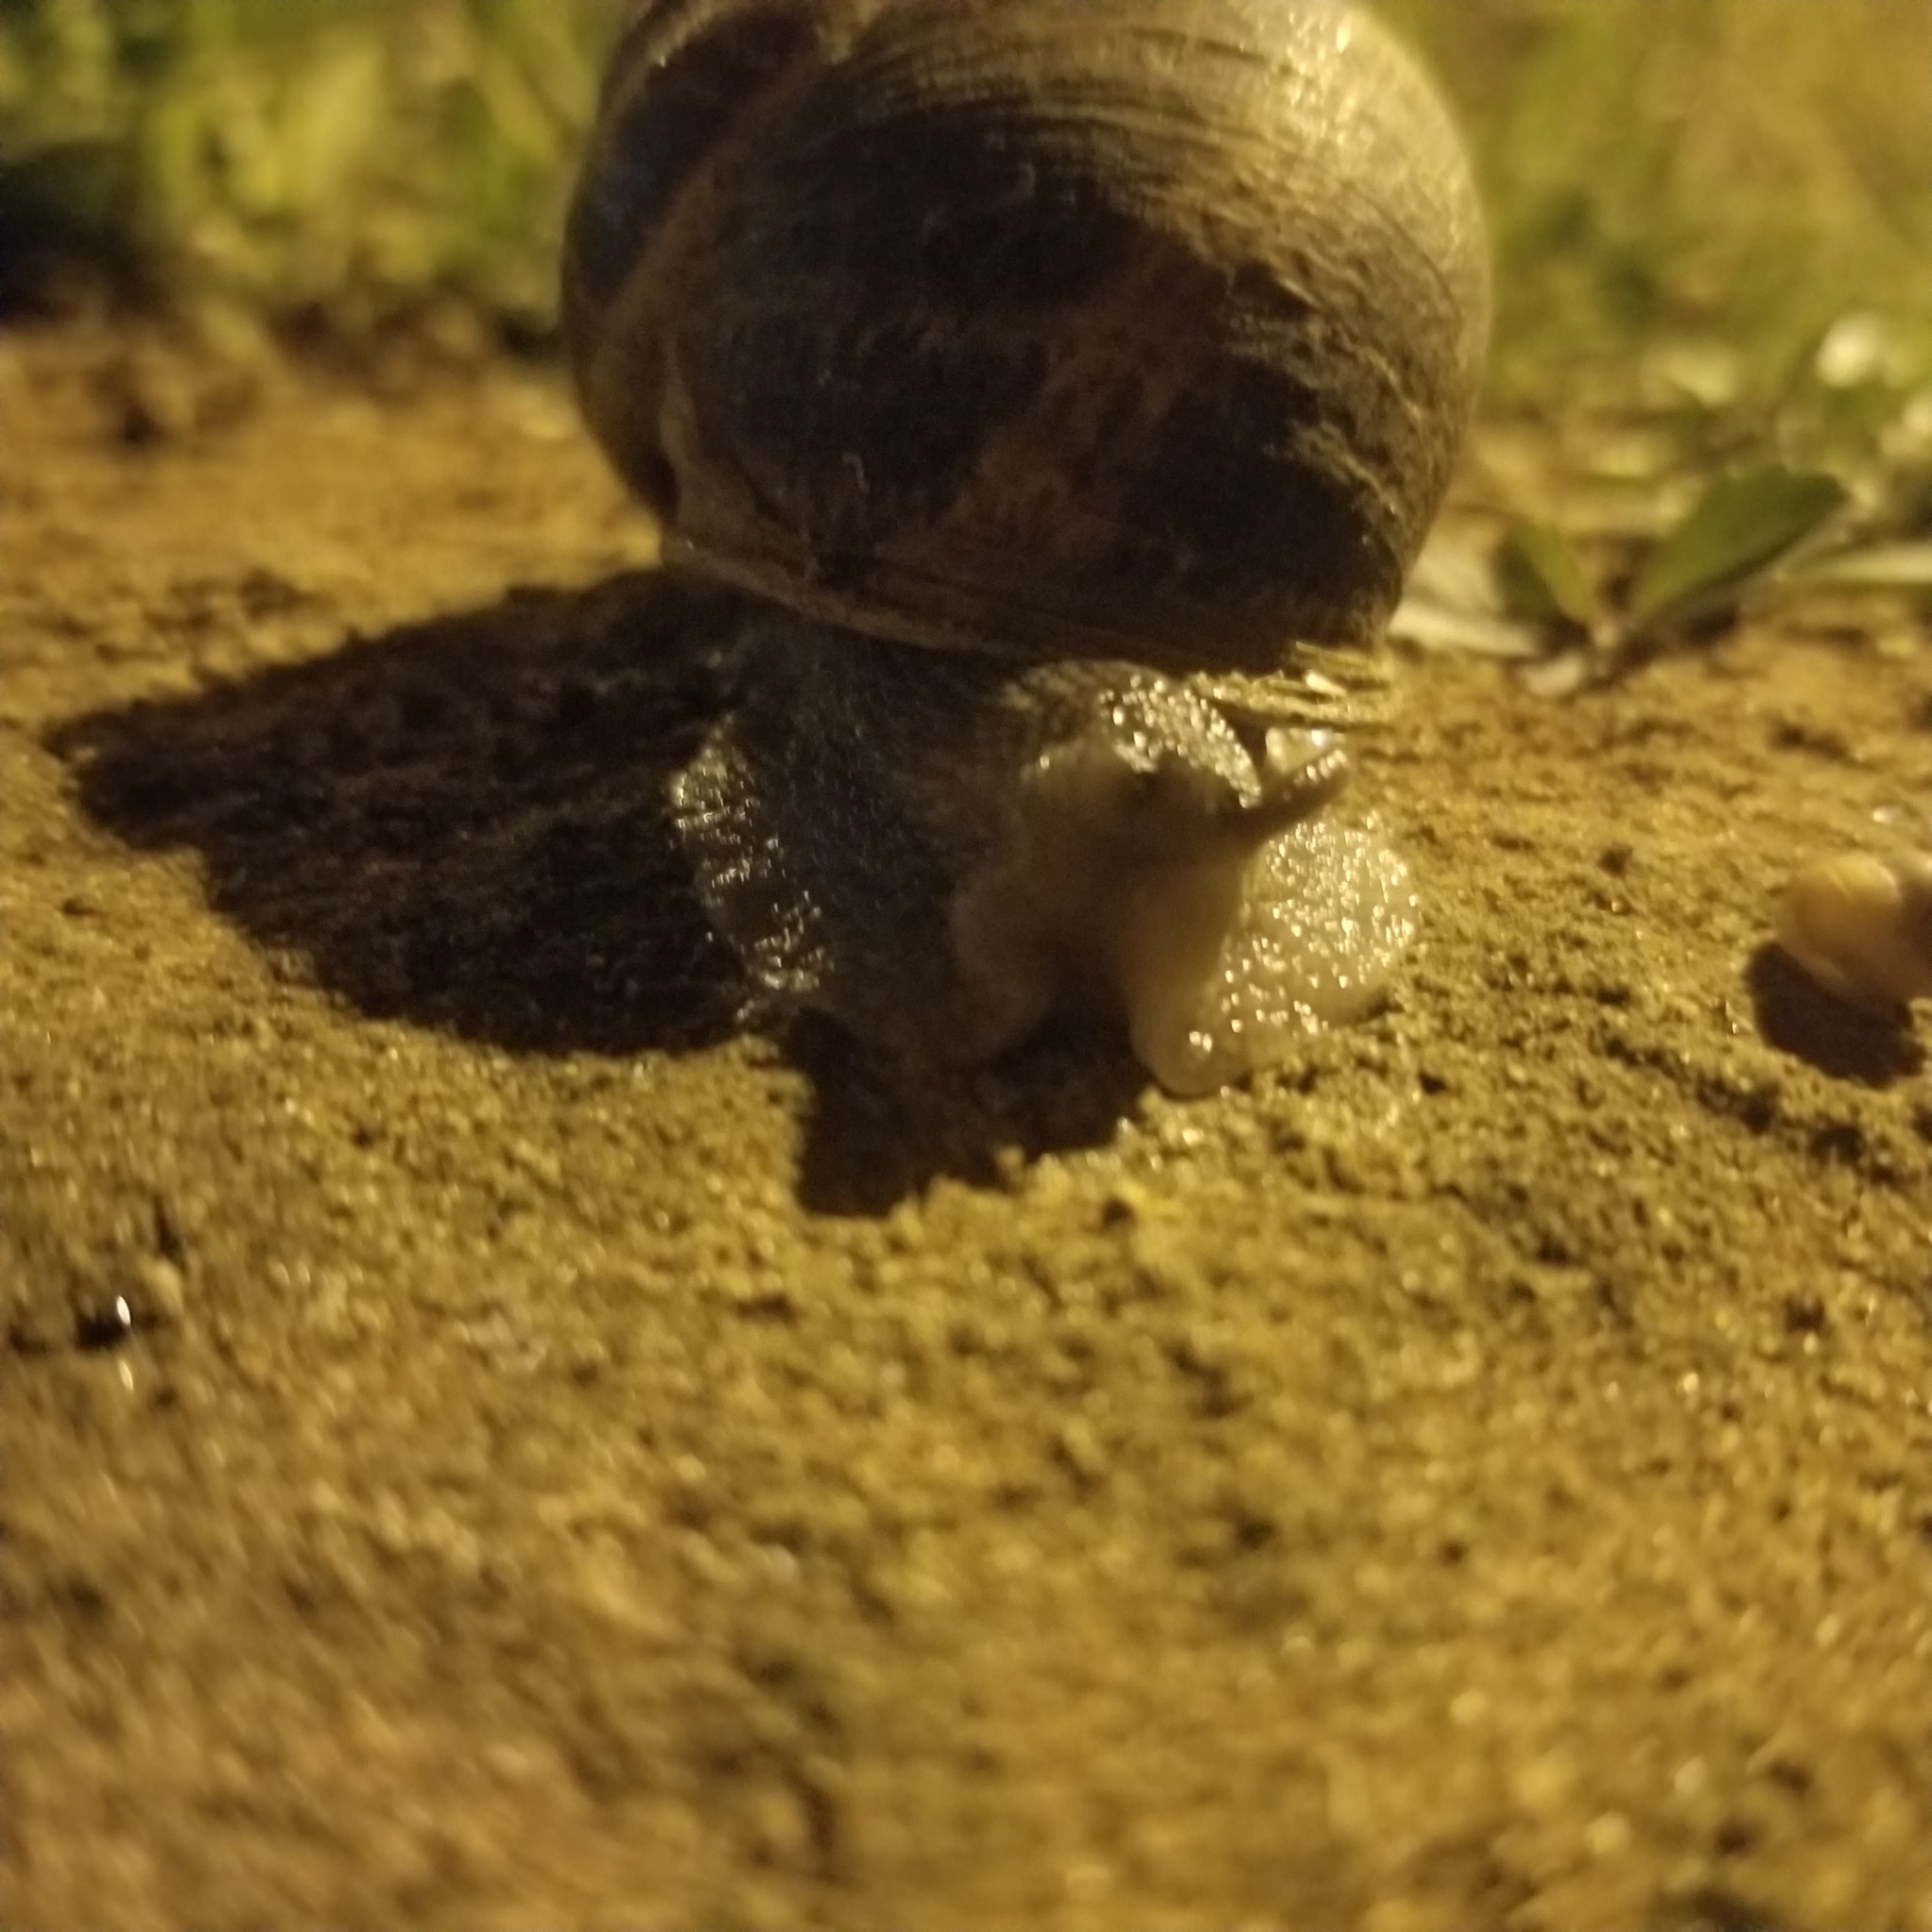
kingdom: Animalia
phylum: Mollusca
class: Gastropoda
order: Stylommatophora
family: Helicidae
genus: Cornu
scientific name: Cornu aspersum
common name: Brown garden snail
